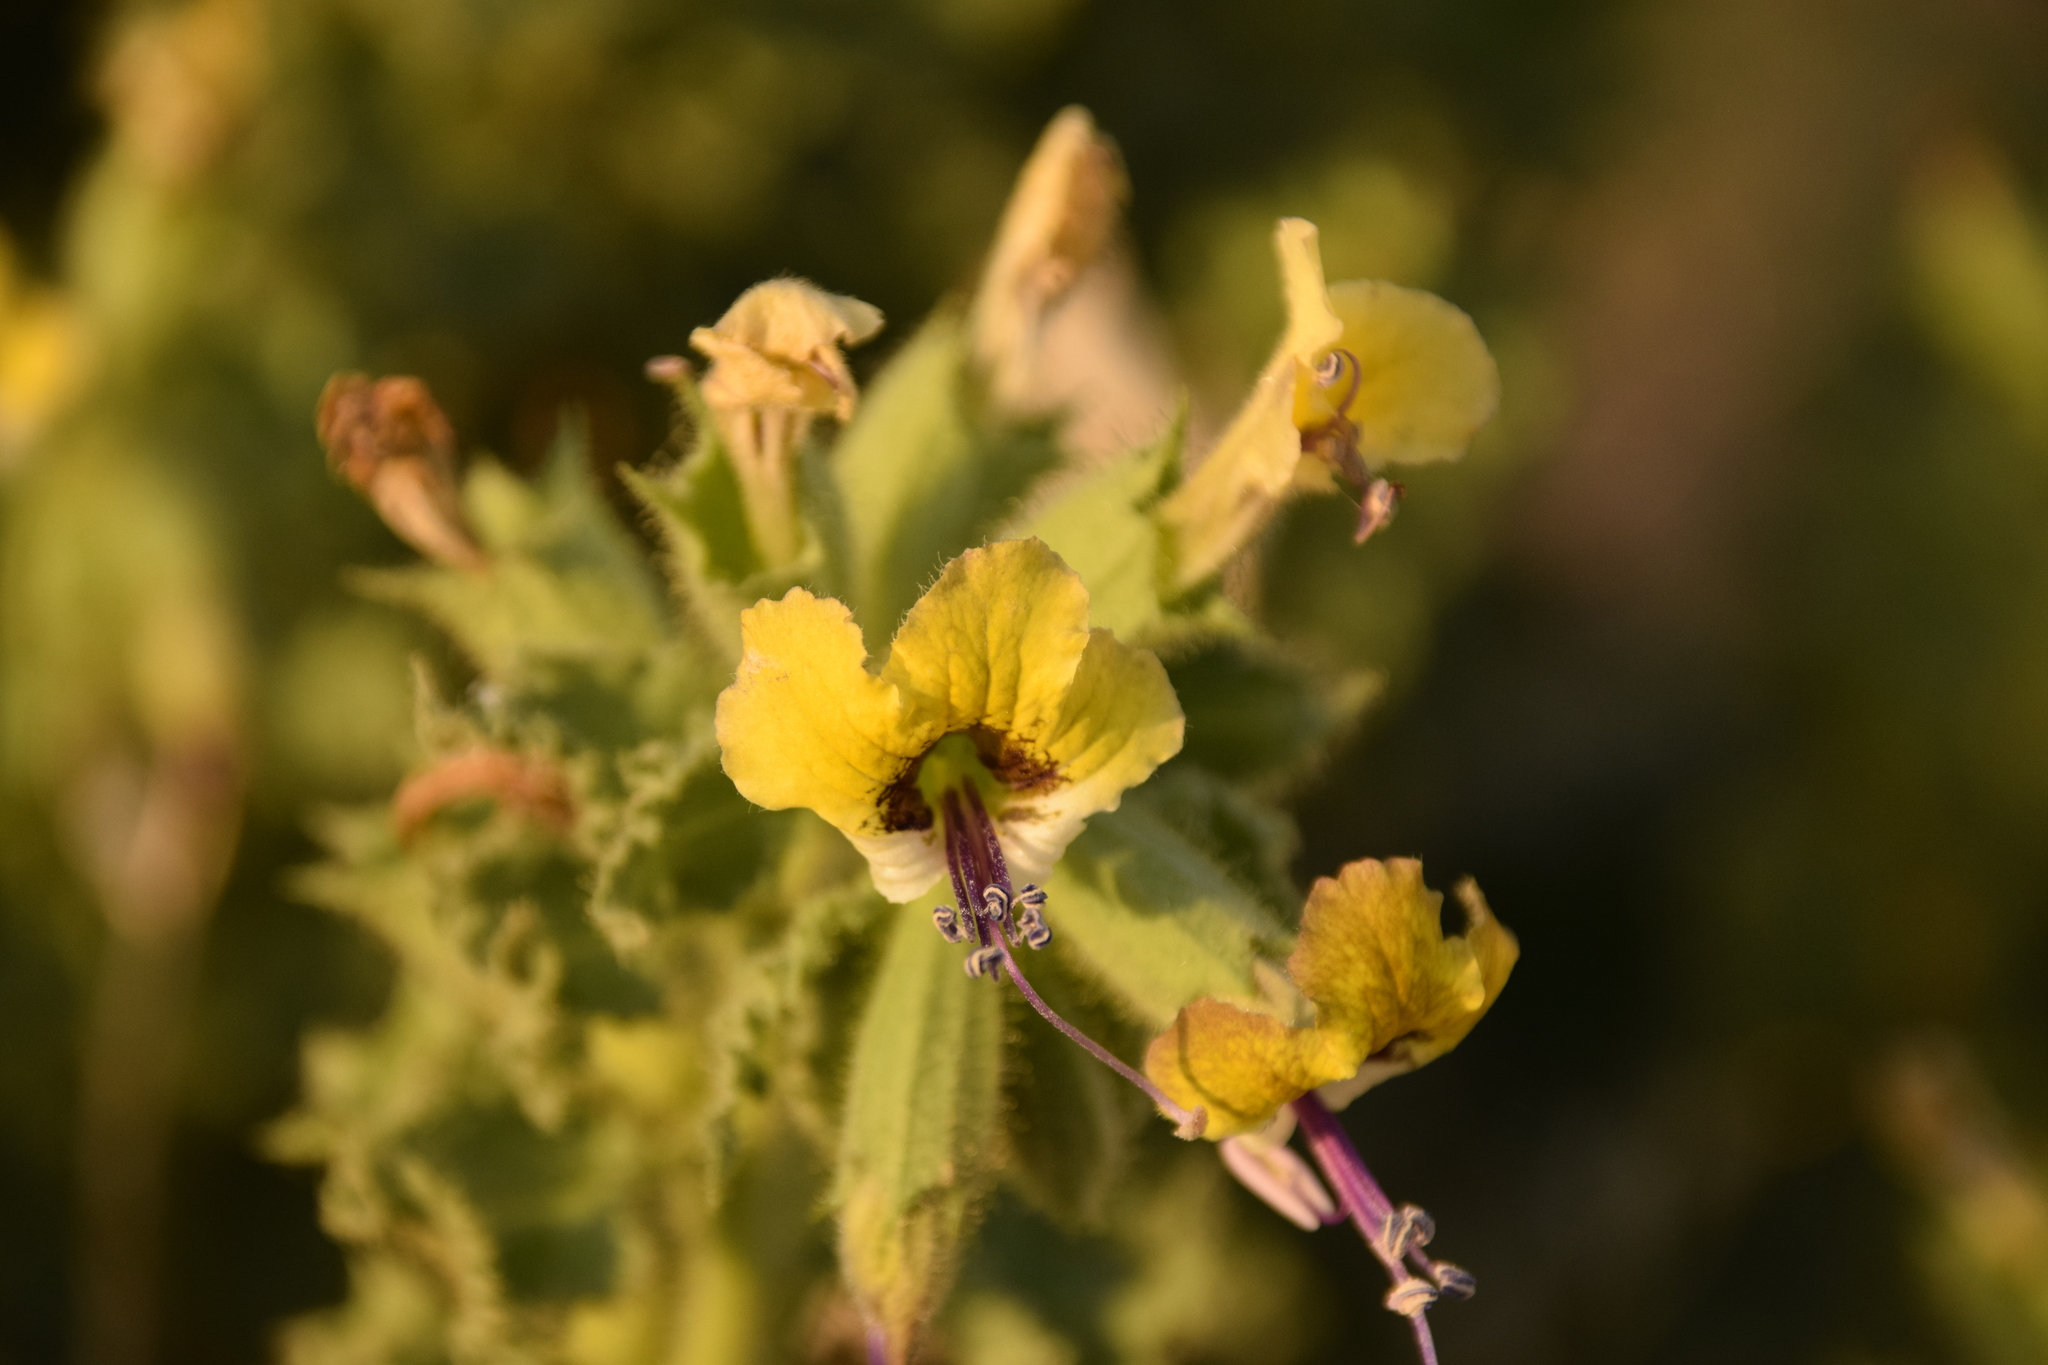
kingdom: Plantae
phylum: Tracheophyta
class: Magnoliopsida
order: Solanales
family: Solanaceae
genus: Hyoscyamus
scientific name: Hyoscyamus aureus
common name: Golden henbane
